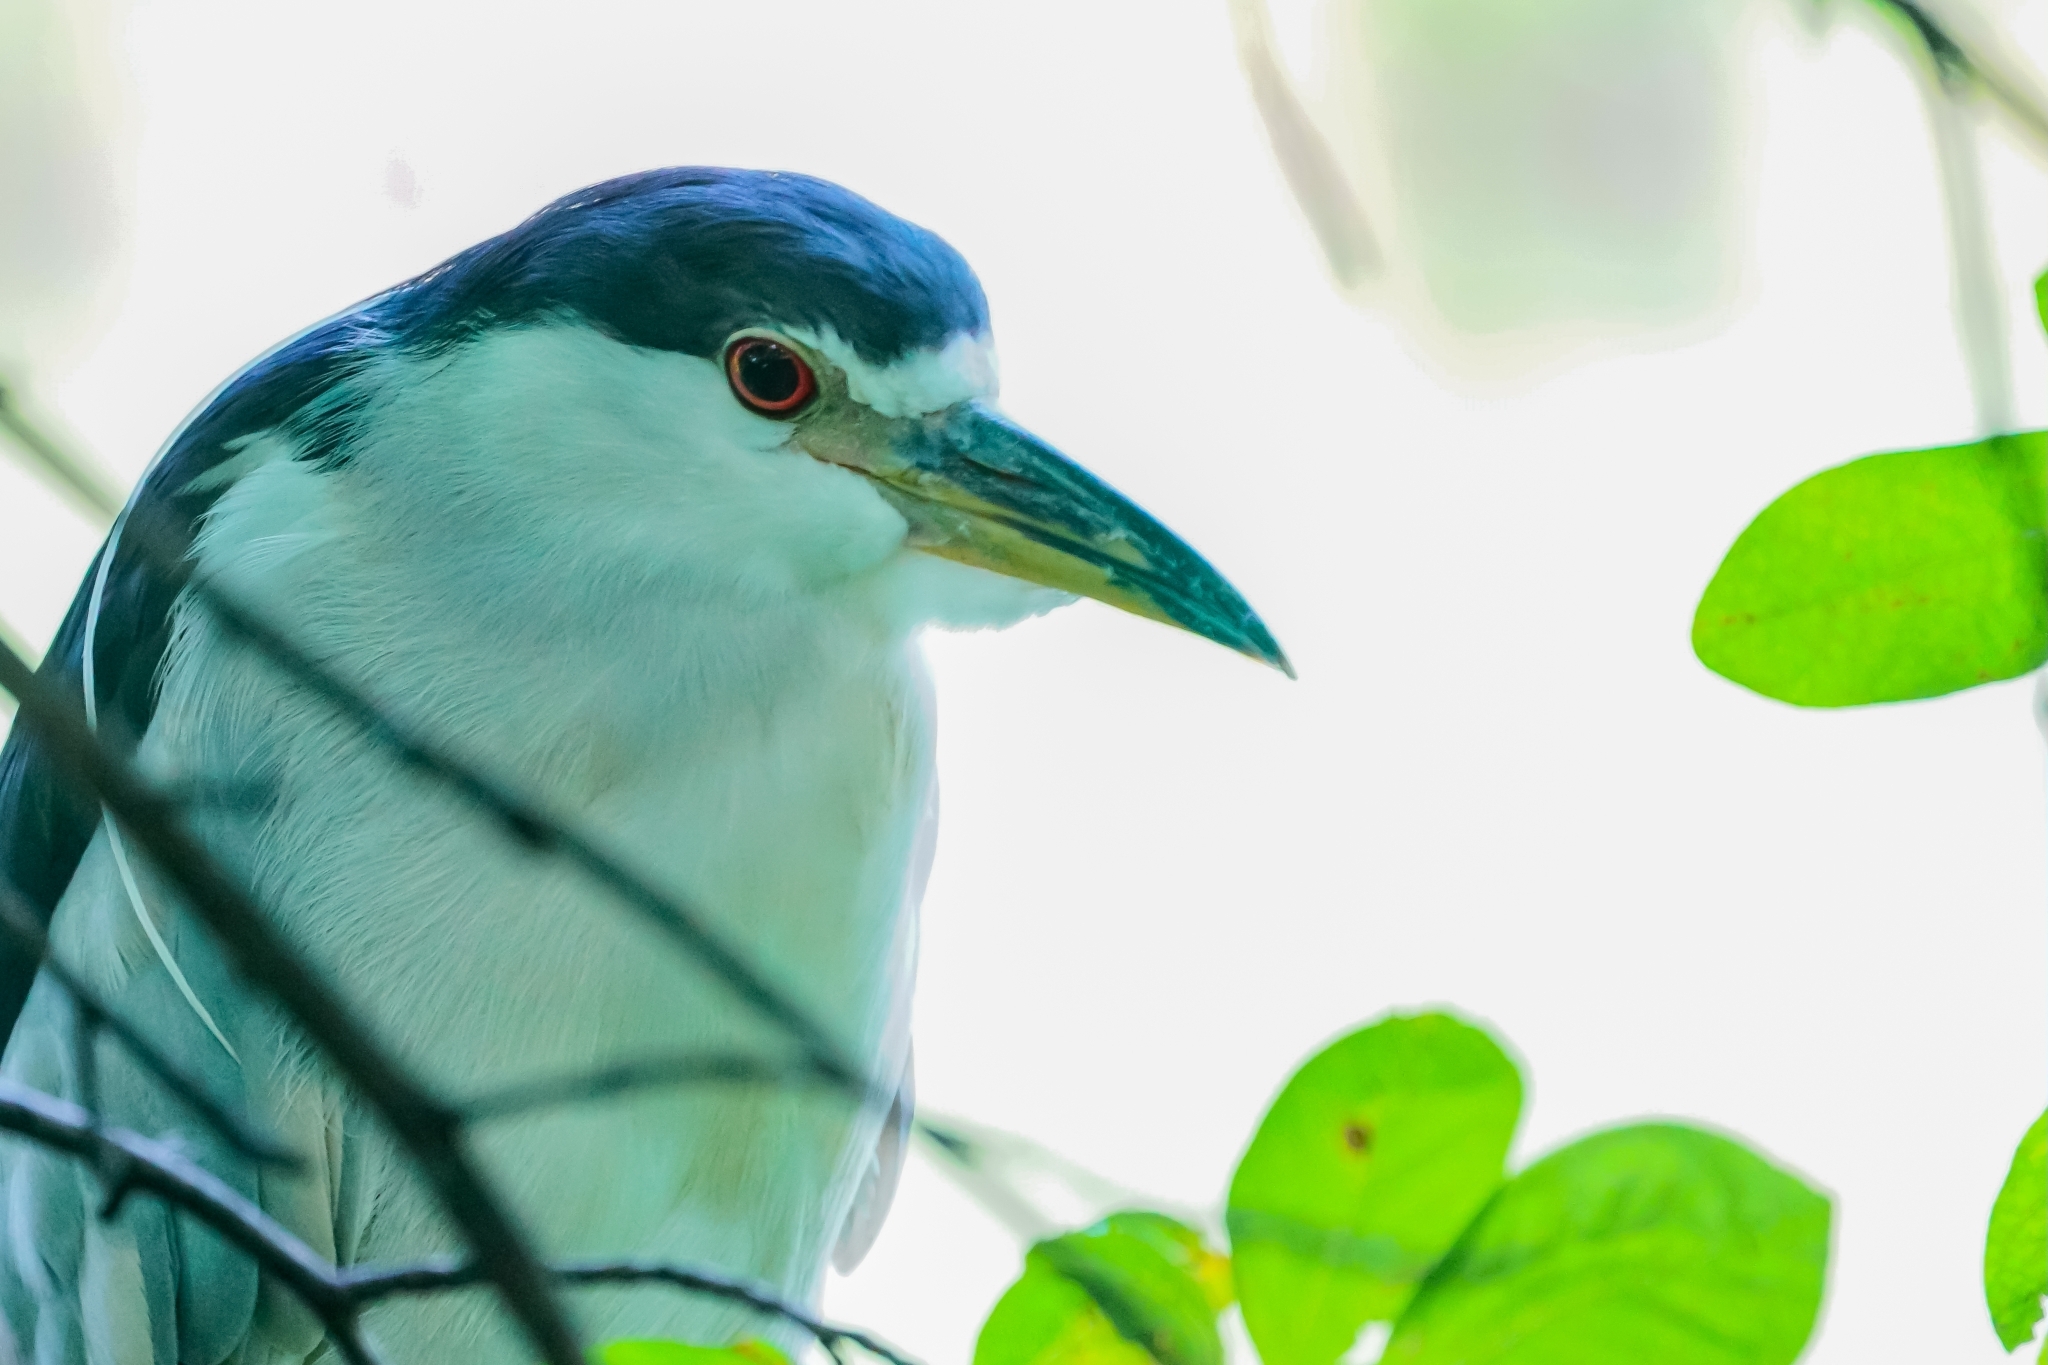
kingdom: Animalia
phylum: Chordata
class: Aves
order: Pelecaniformes
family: Ardeidae
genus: Nycticorax
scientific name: Nycticorax nycticorax
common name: Black-crowned night heron
